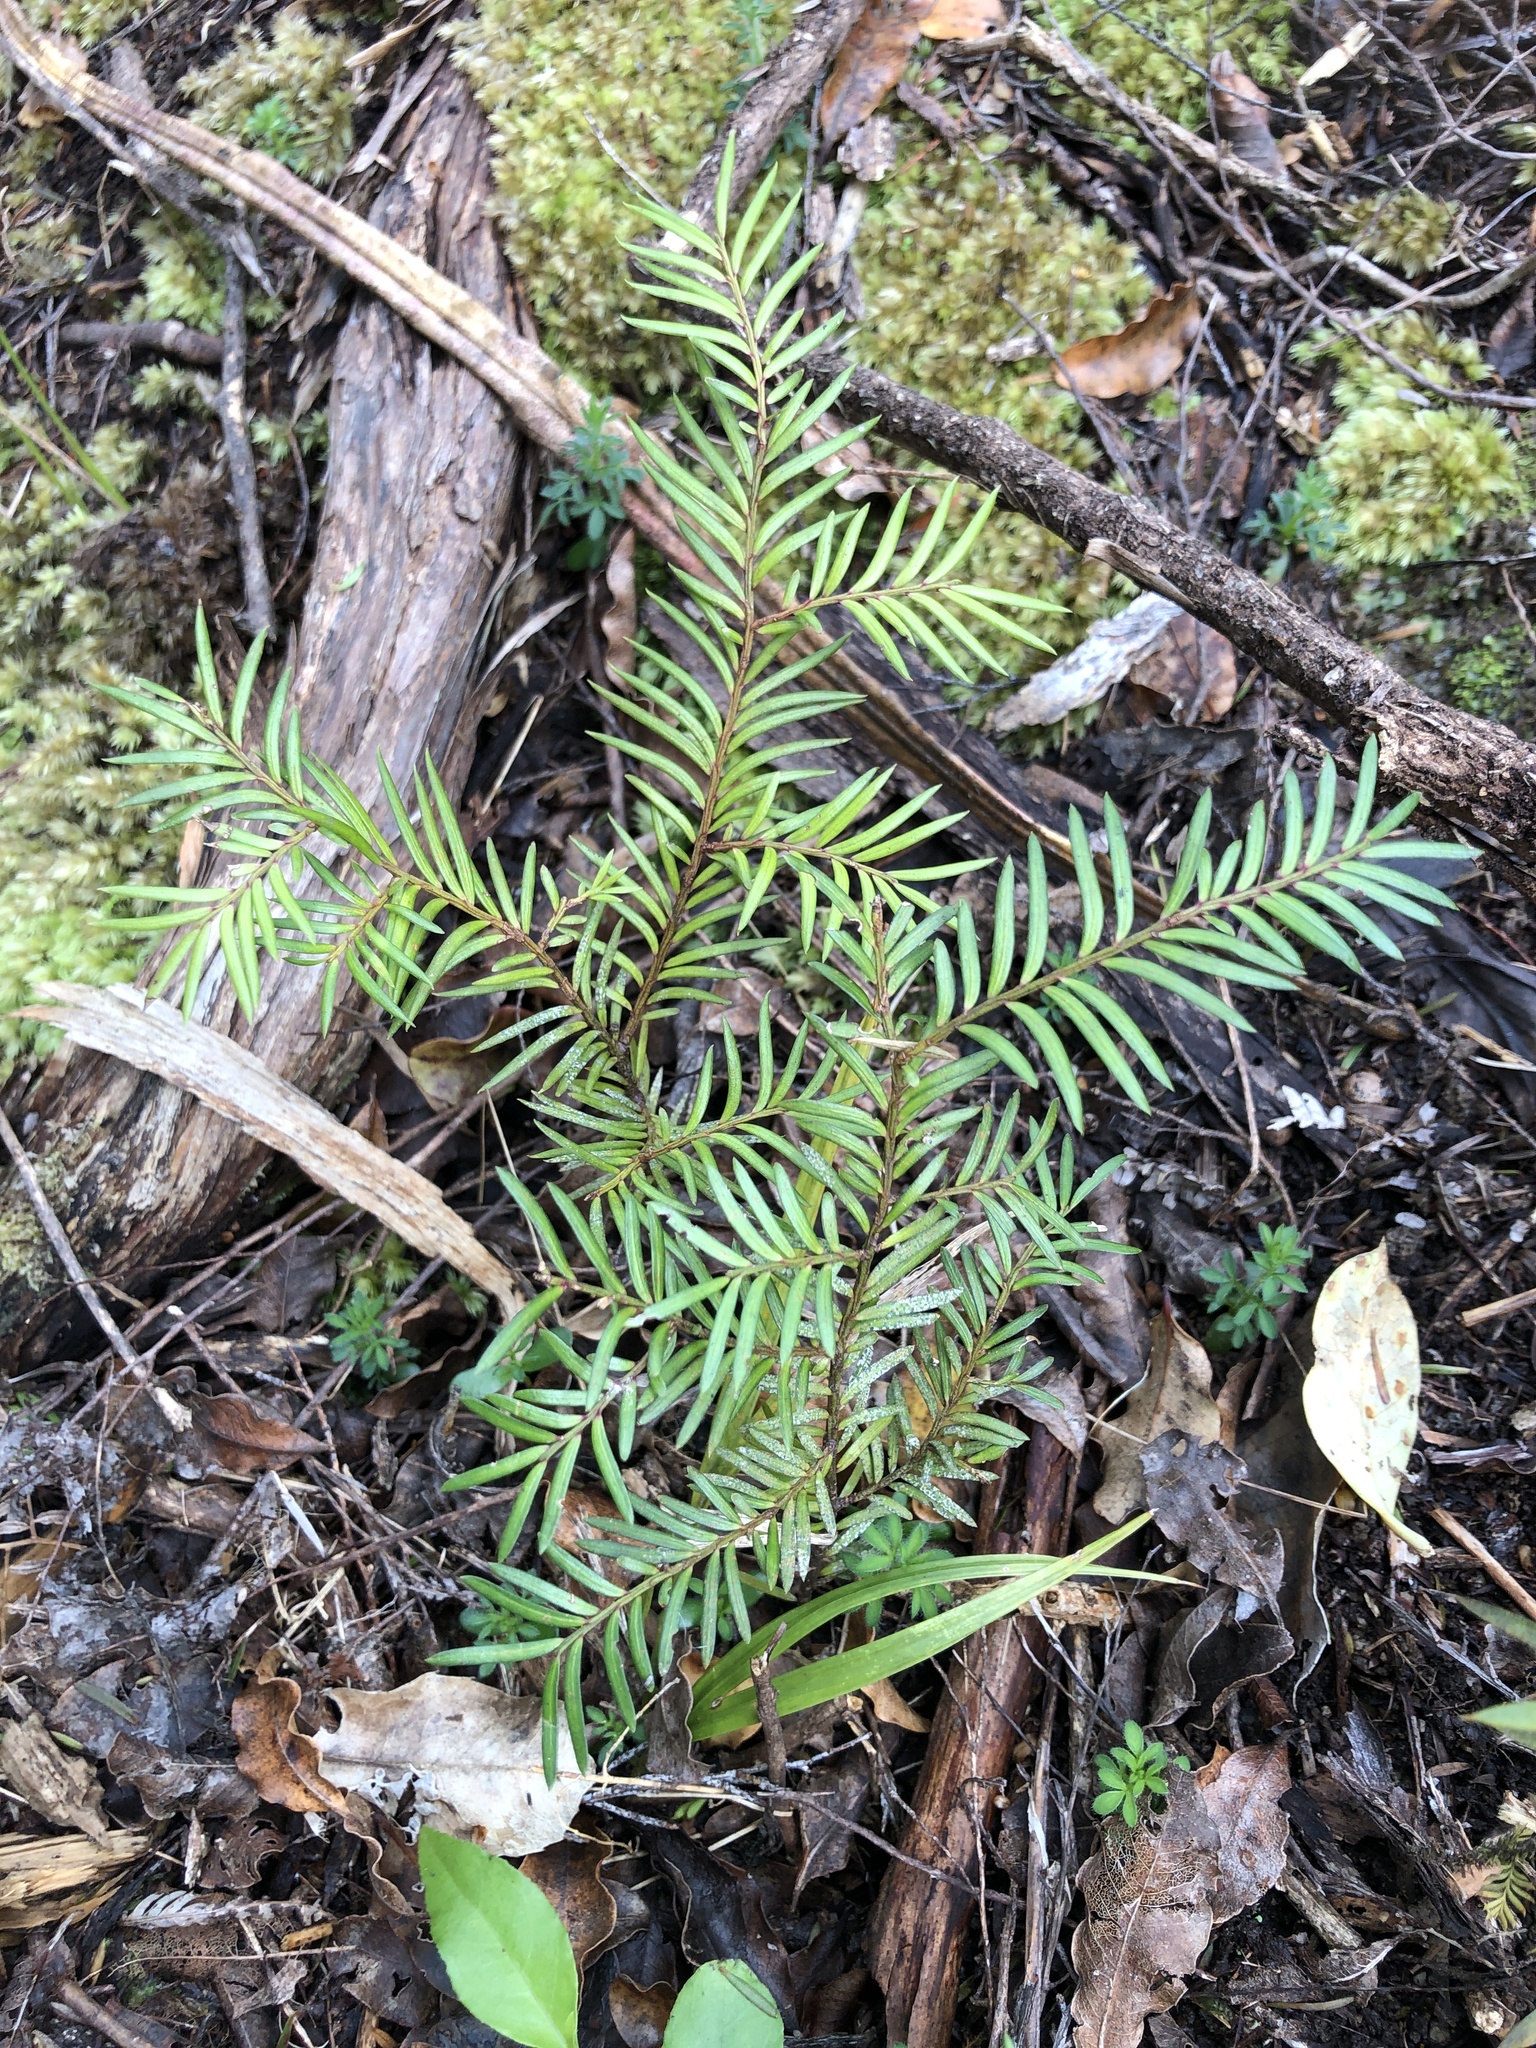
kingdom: Plantae
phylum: Tracheophyta
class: Pinopsida
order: Pinales
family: Podocarpaceae
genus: Prumnopitys
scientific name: Prumnopitys ferruginea
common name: Brown pine
